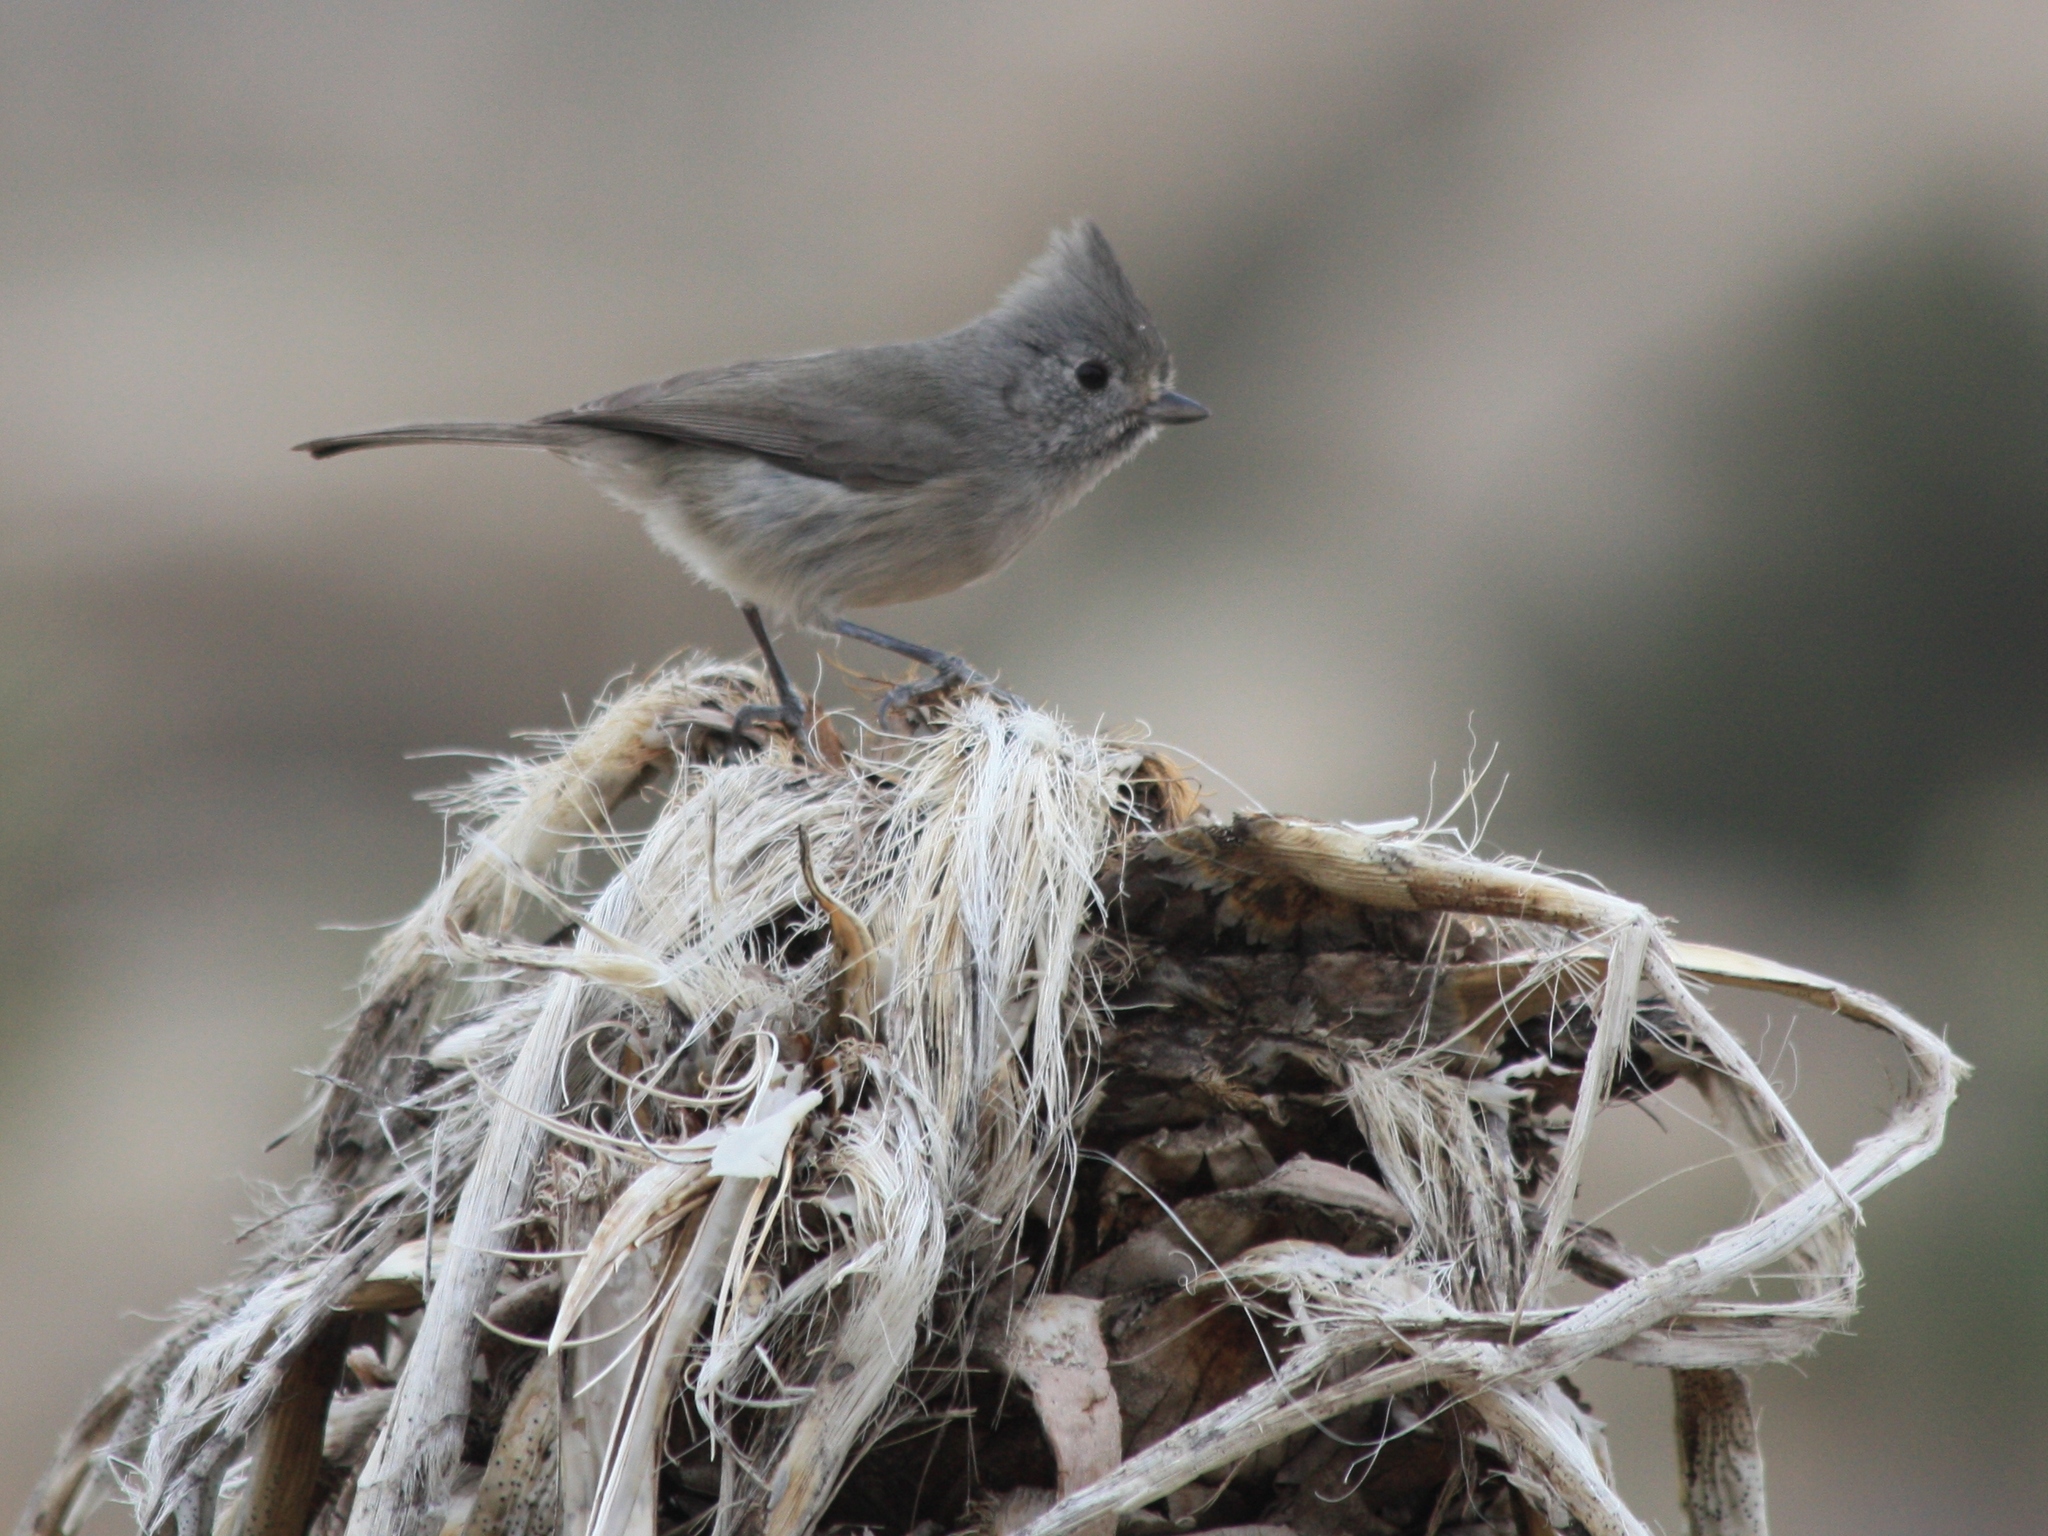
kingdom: Animalia
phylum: Chordata
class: Aves
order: Passeriformes
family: Paridae
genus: Baeolophus
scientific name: Baeolophus inornatus
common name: Oak titmouse
